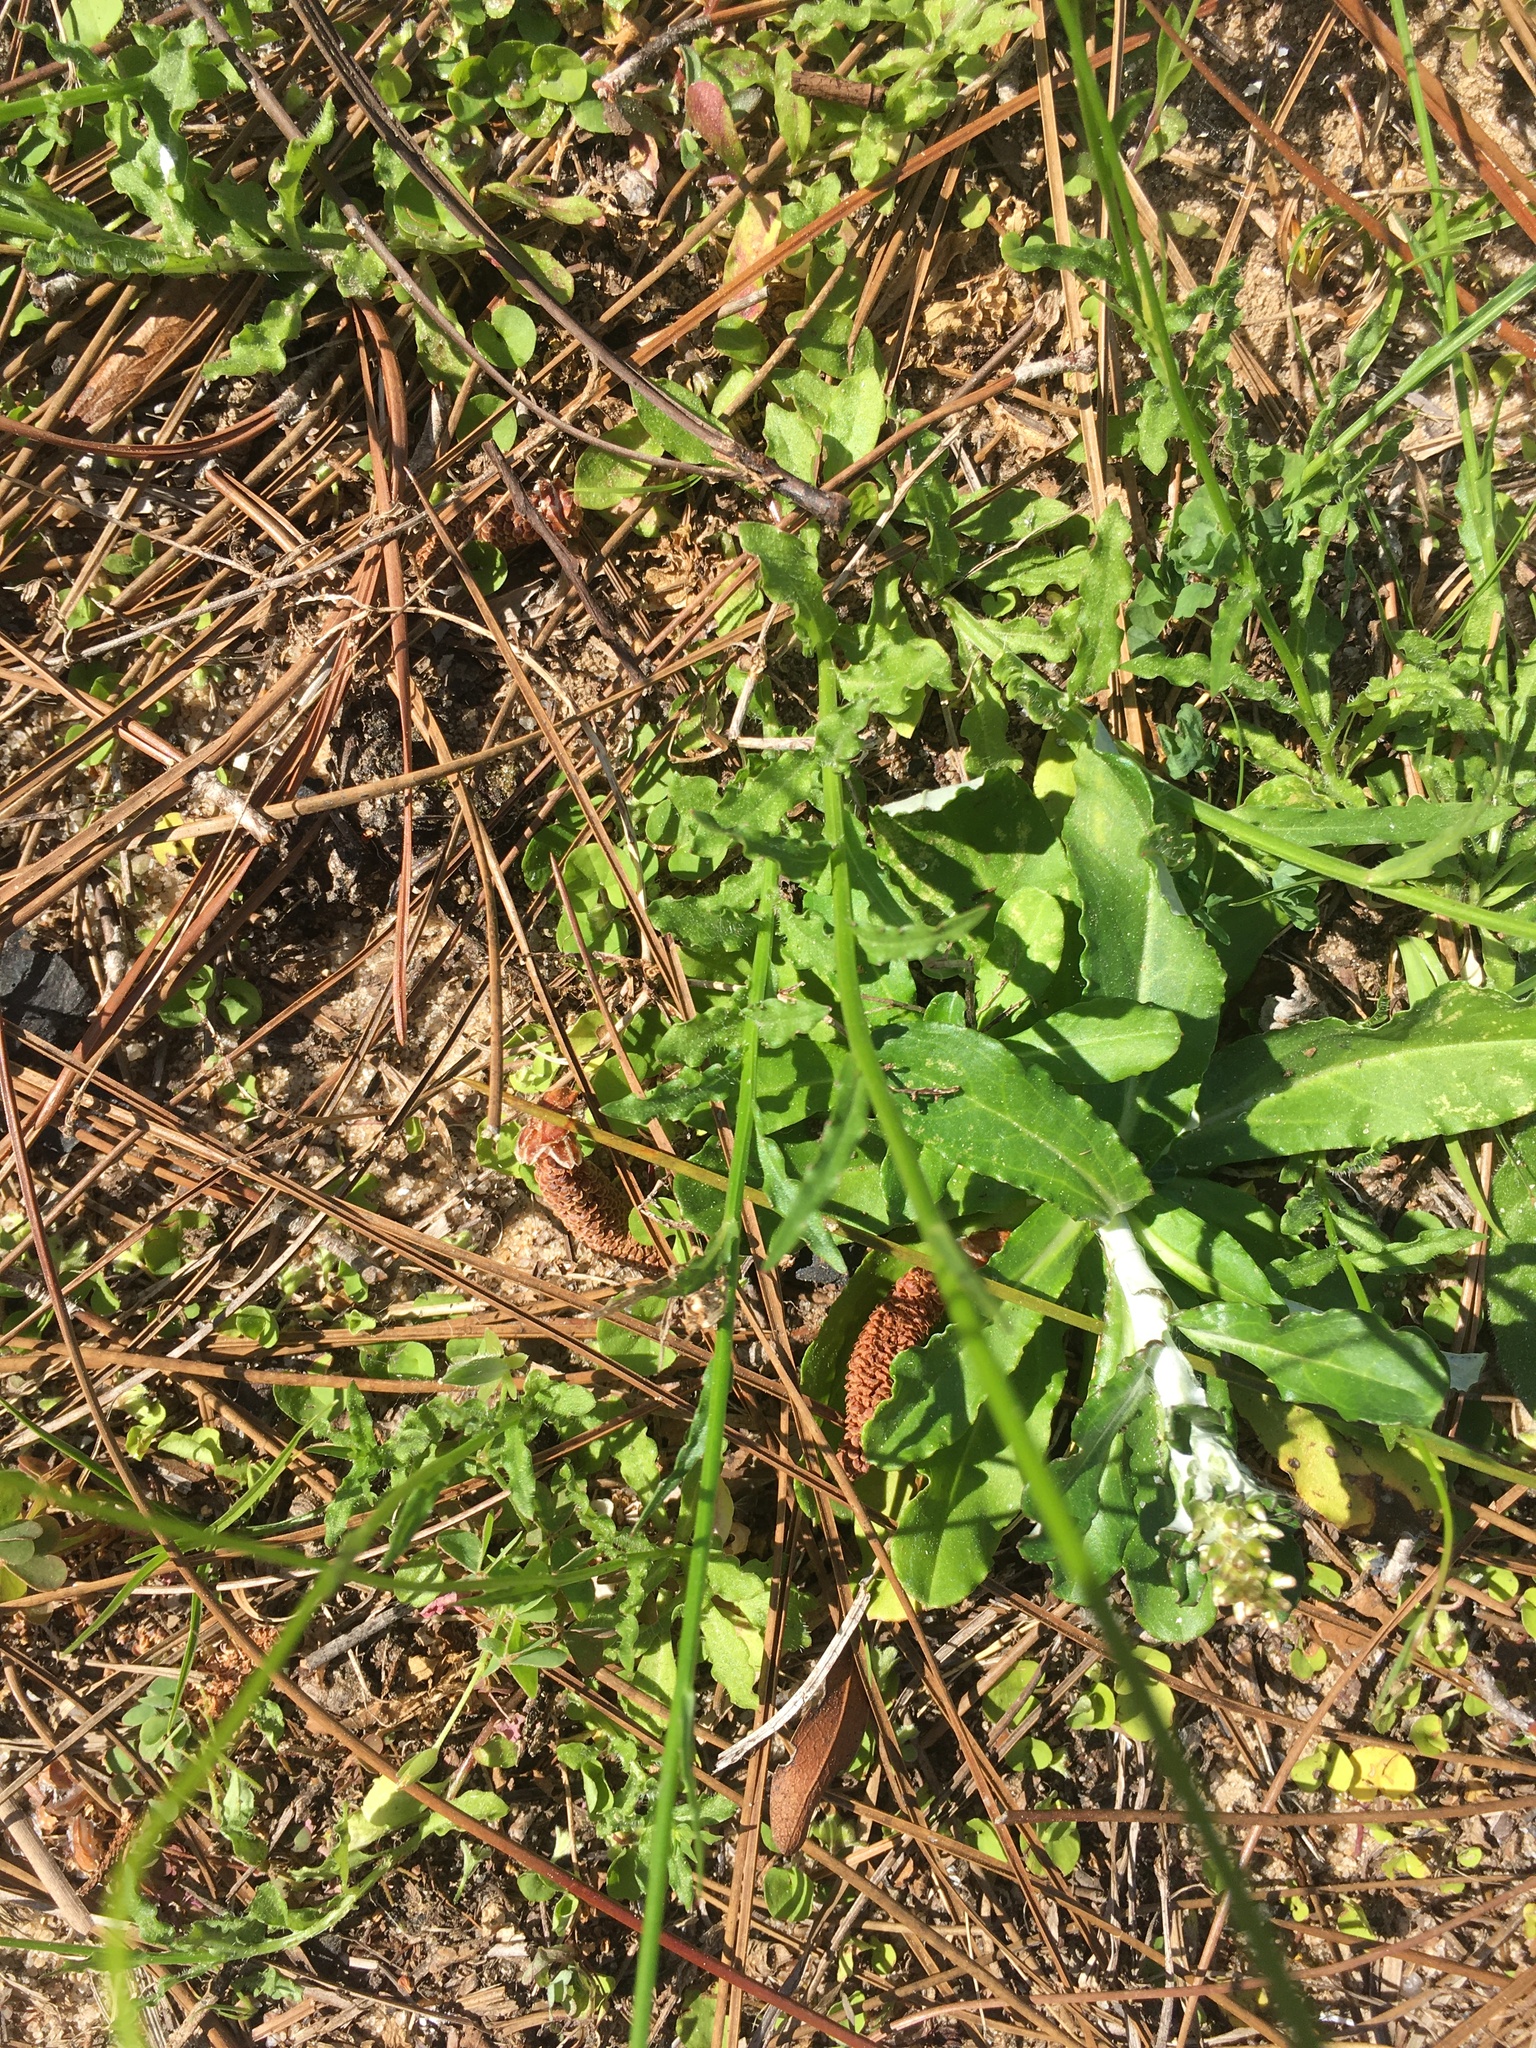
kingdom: Plantae
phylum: Tracheophyta
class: Magnoliopsida
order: Asterales
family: Campanulaceae
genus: Wahlenbergia
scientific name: Wahlenbergia marginata
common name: Southern rockbell
